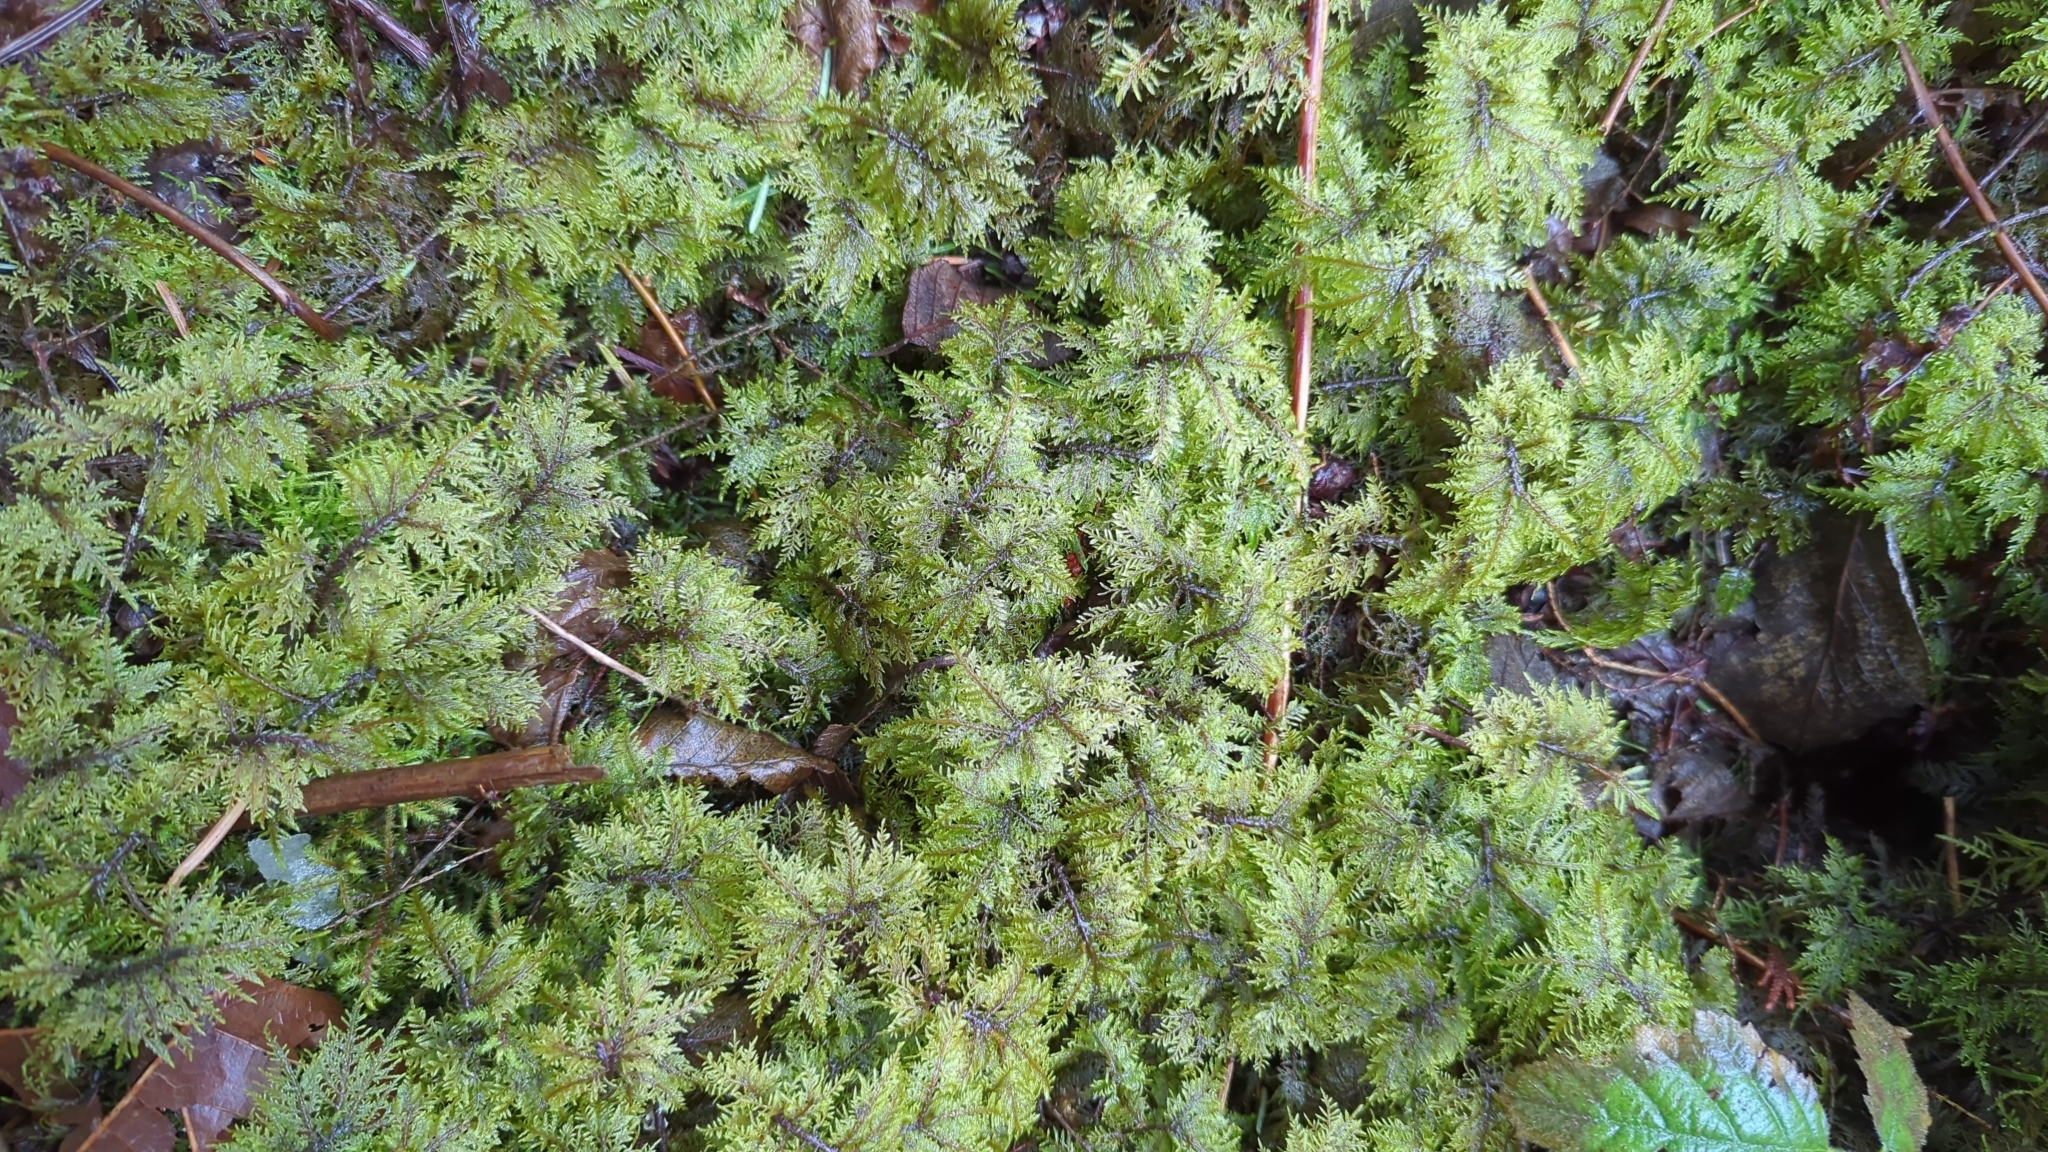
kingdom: Plantae
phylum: Bryophyta
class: Bryopsida
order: Hypnales
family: Hylocomiaceae
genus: Hylocomium
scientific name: Hylocomium splendens
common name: Stairstep moss
